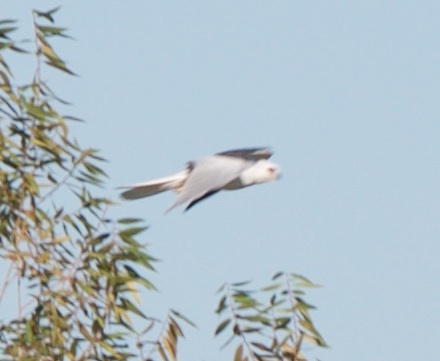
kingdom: Animalia
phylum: Chordata
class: Aves
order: Accipitriformes
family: Accipitridae
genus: Elanus
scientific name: Elanus leucurus
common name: White-tailed kite
